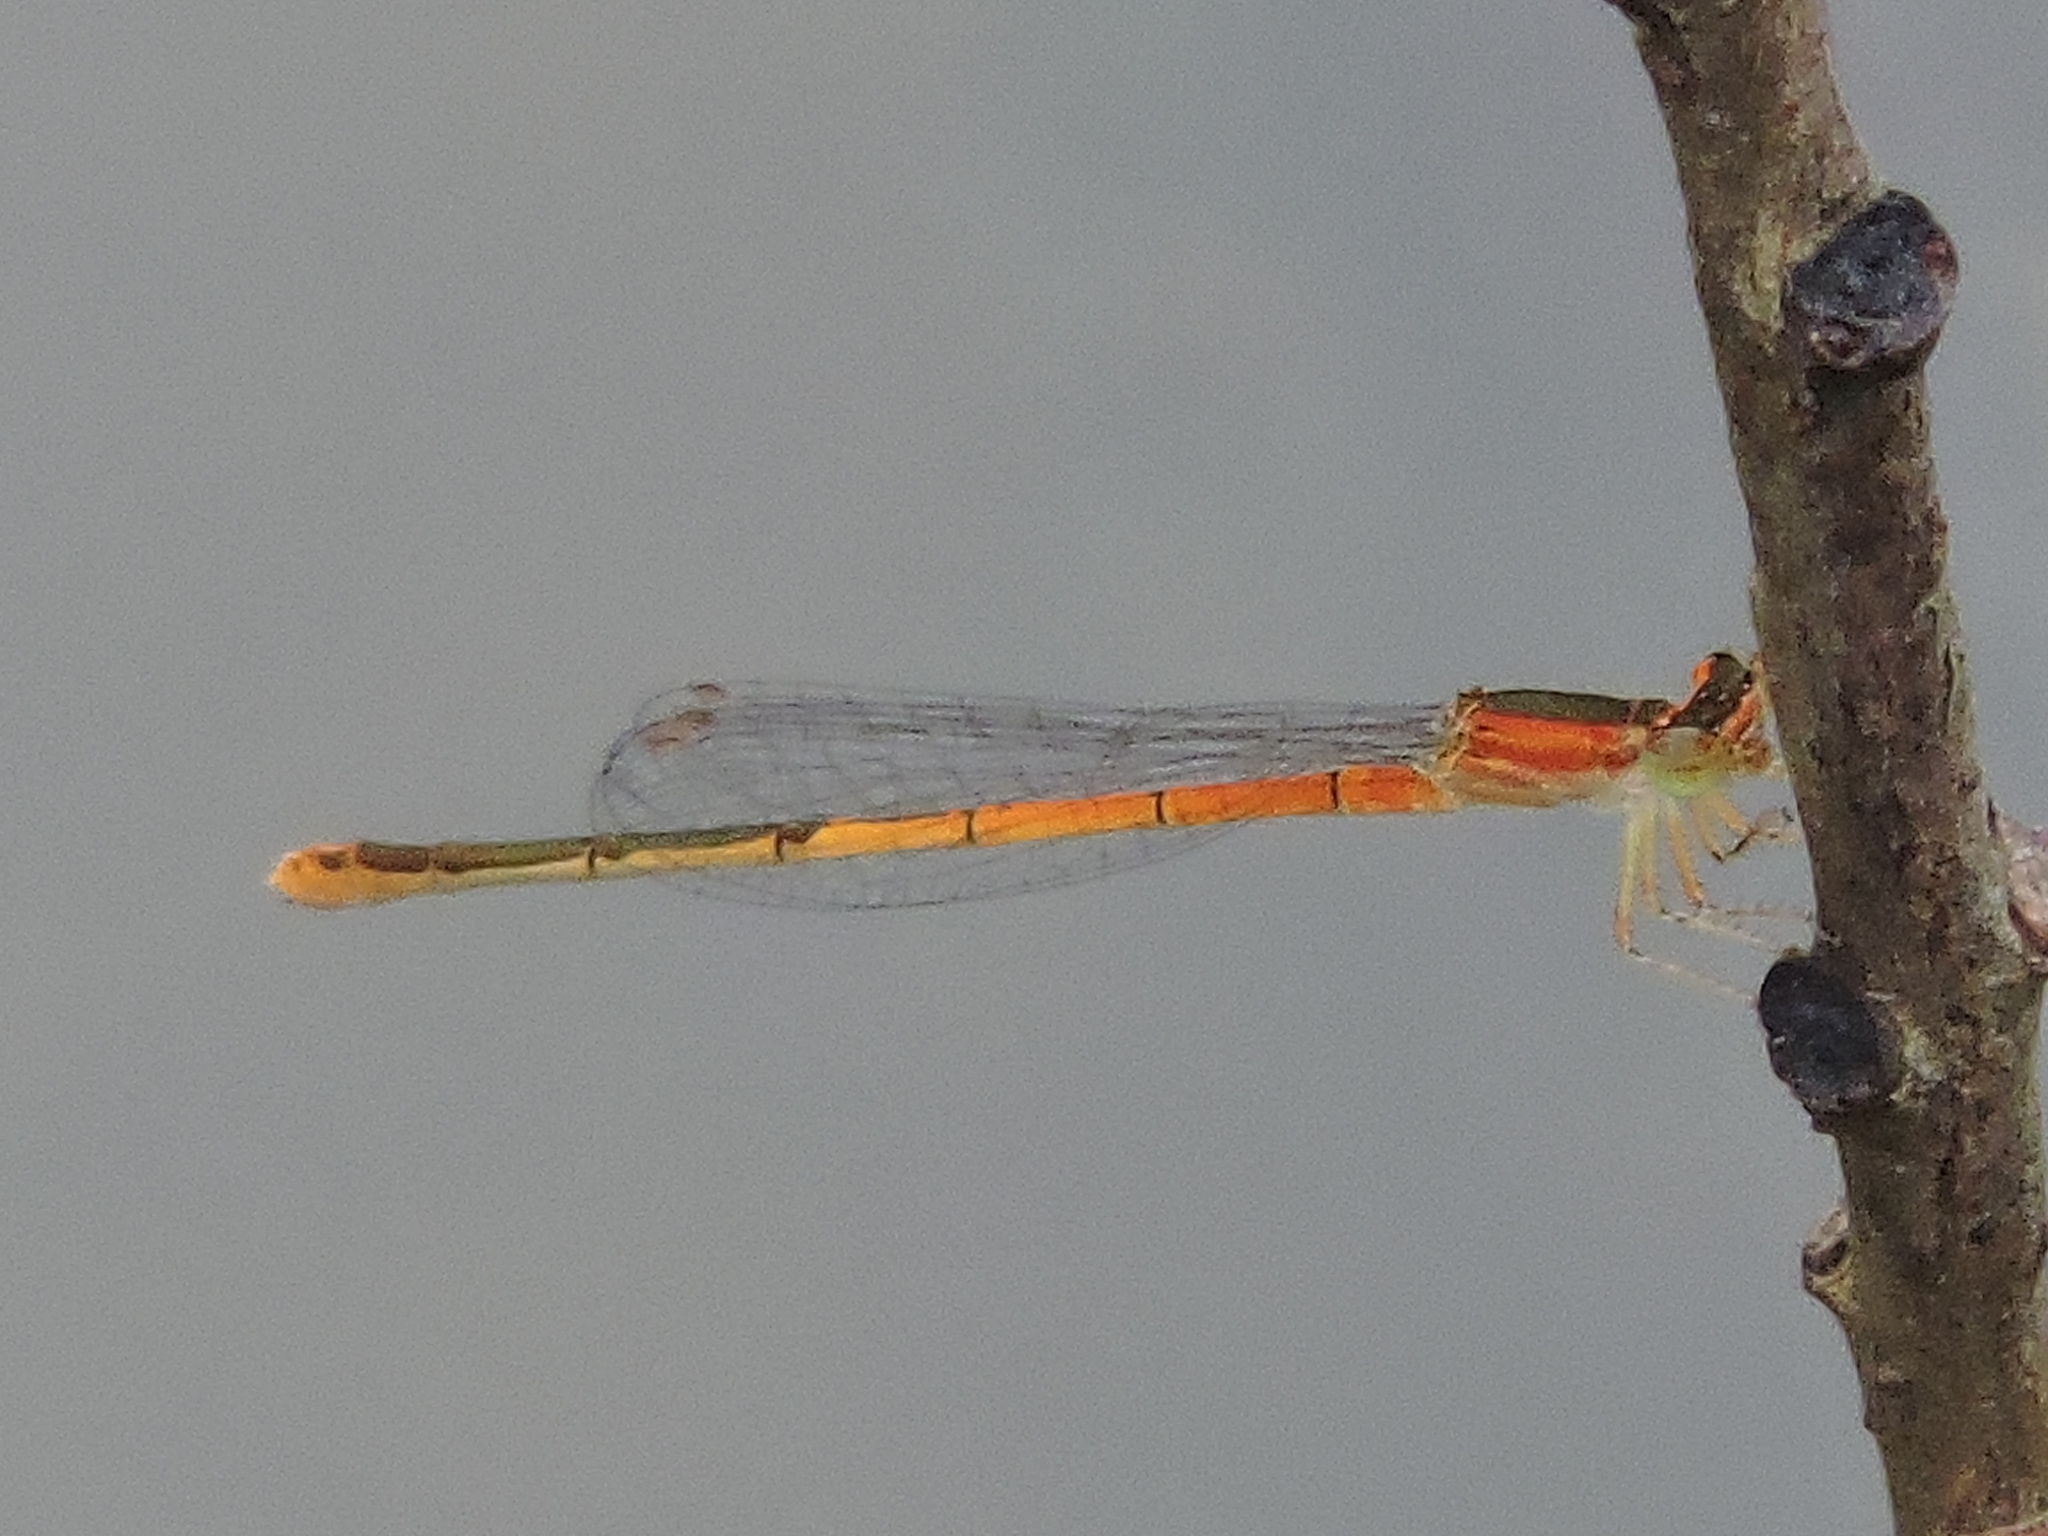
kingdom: Animalia
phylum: Arthropoda
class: Insecta
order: Odonata
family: Coenagrionidae
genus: Ischnura
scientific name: Ischnura hastata
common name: Citrine forktail
